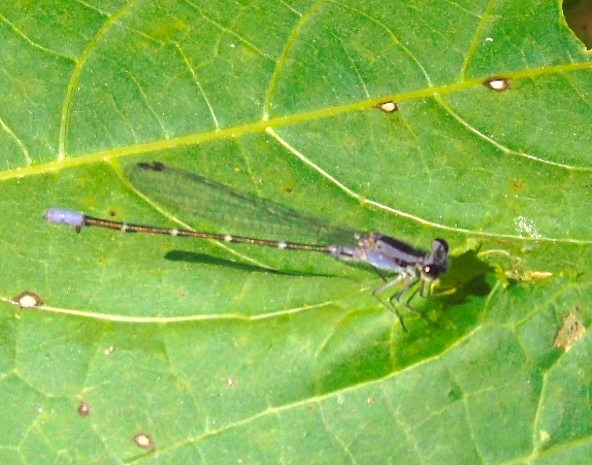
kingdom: Animalia
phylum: Arthropoda
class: Insecta
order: Odonata
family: Coenagrionidae
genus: Argia
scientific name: Argia
